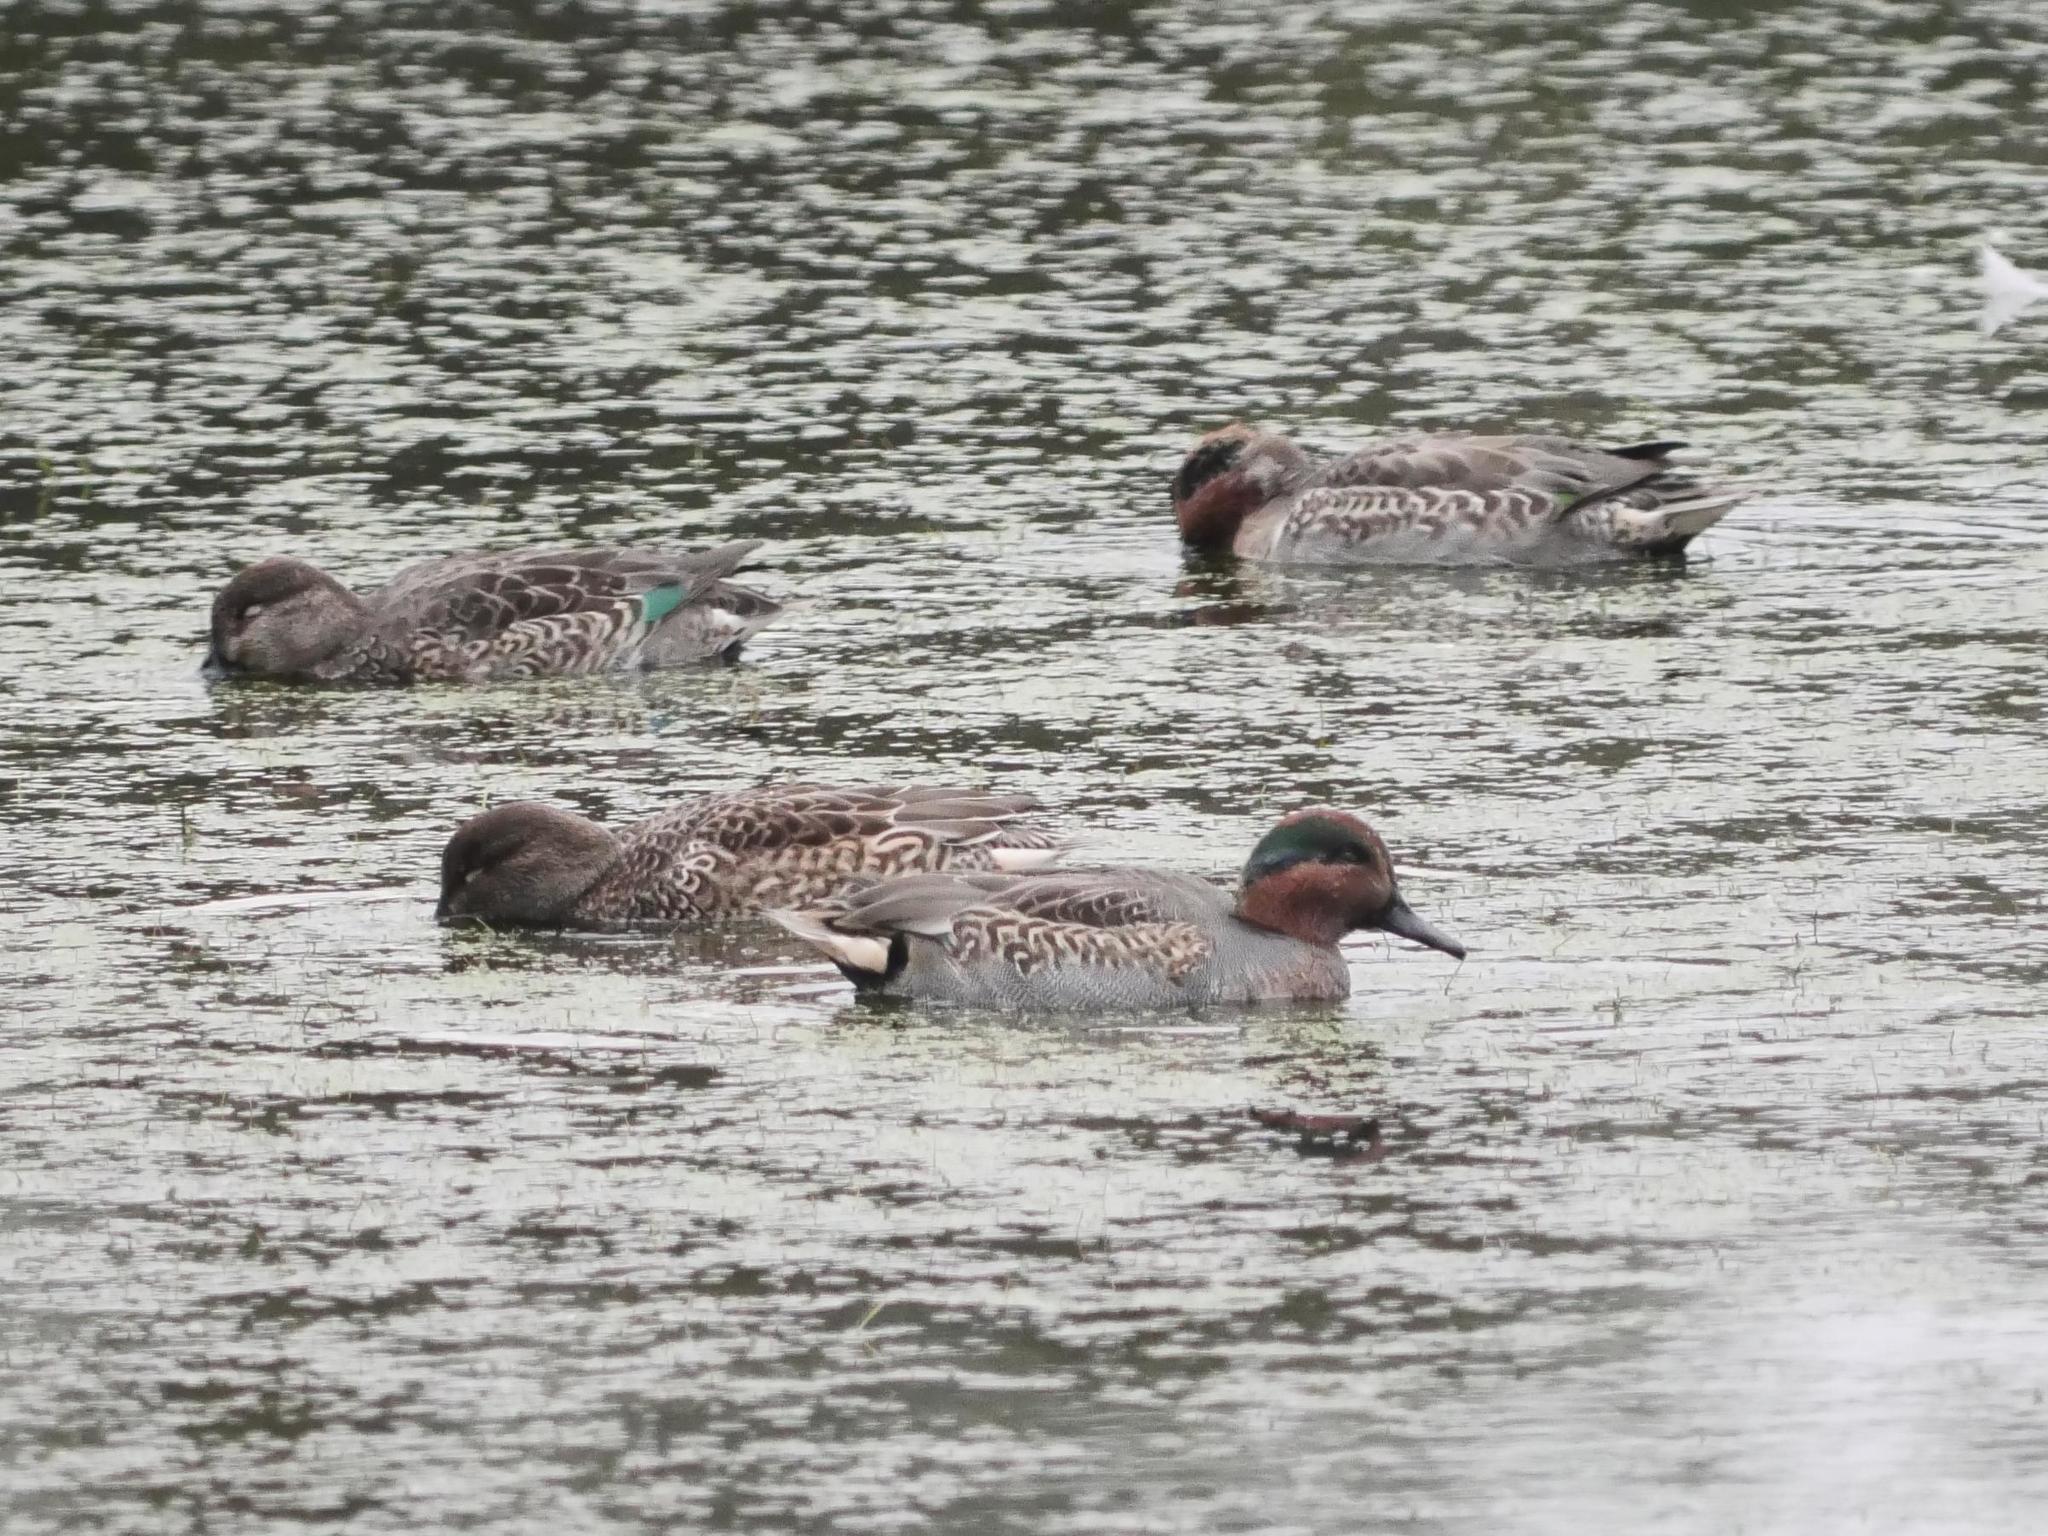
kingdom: Animalia
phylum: Chordata
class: Aves
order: Anseriformes
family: Anatidae
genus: Anas
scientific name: Anas crecca
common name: Eurasian teal
